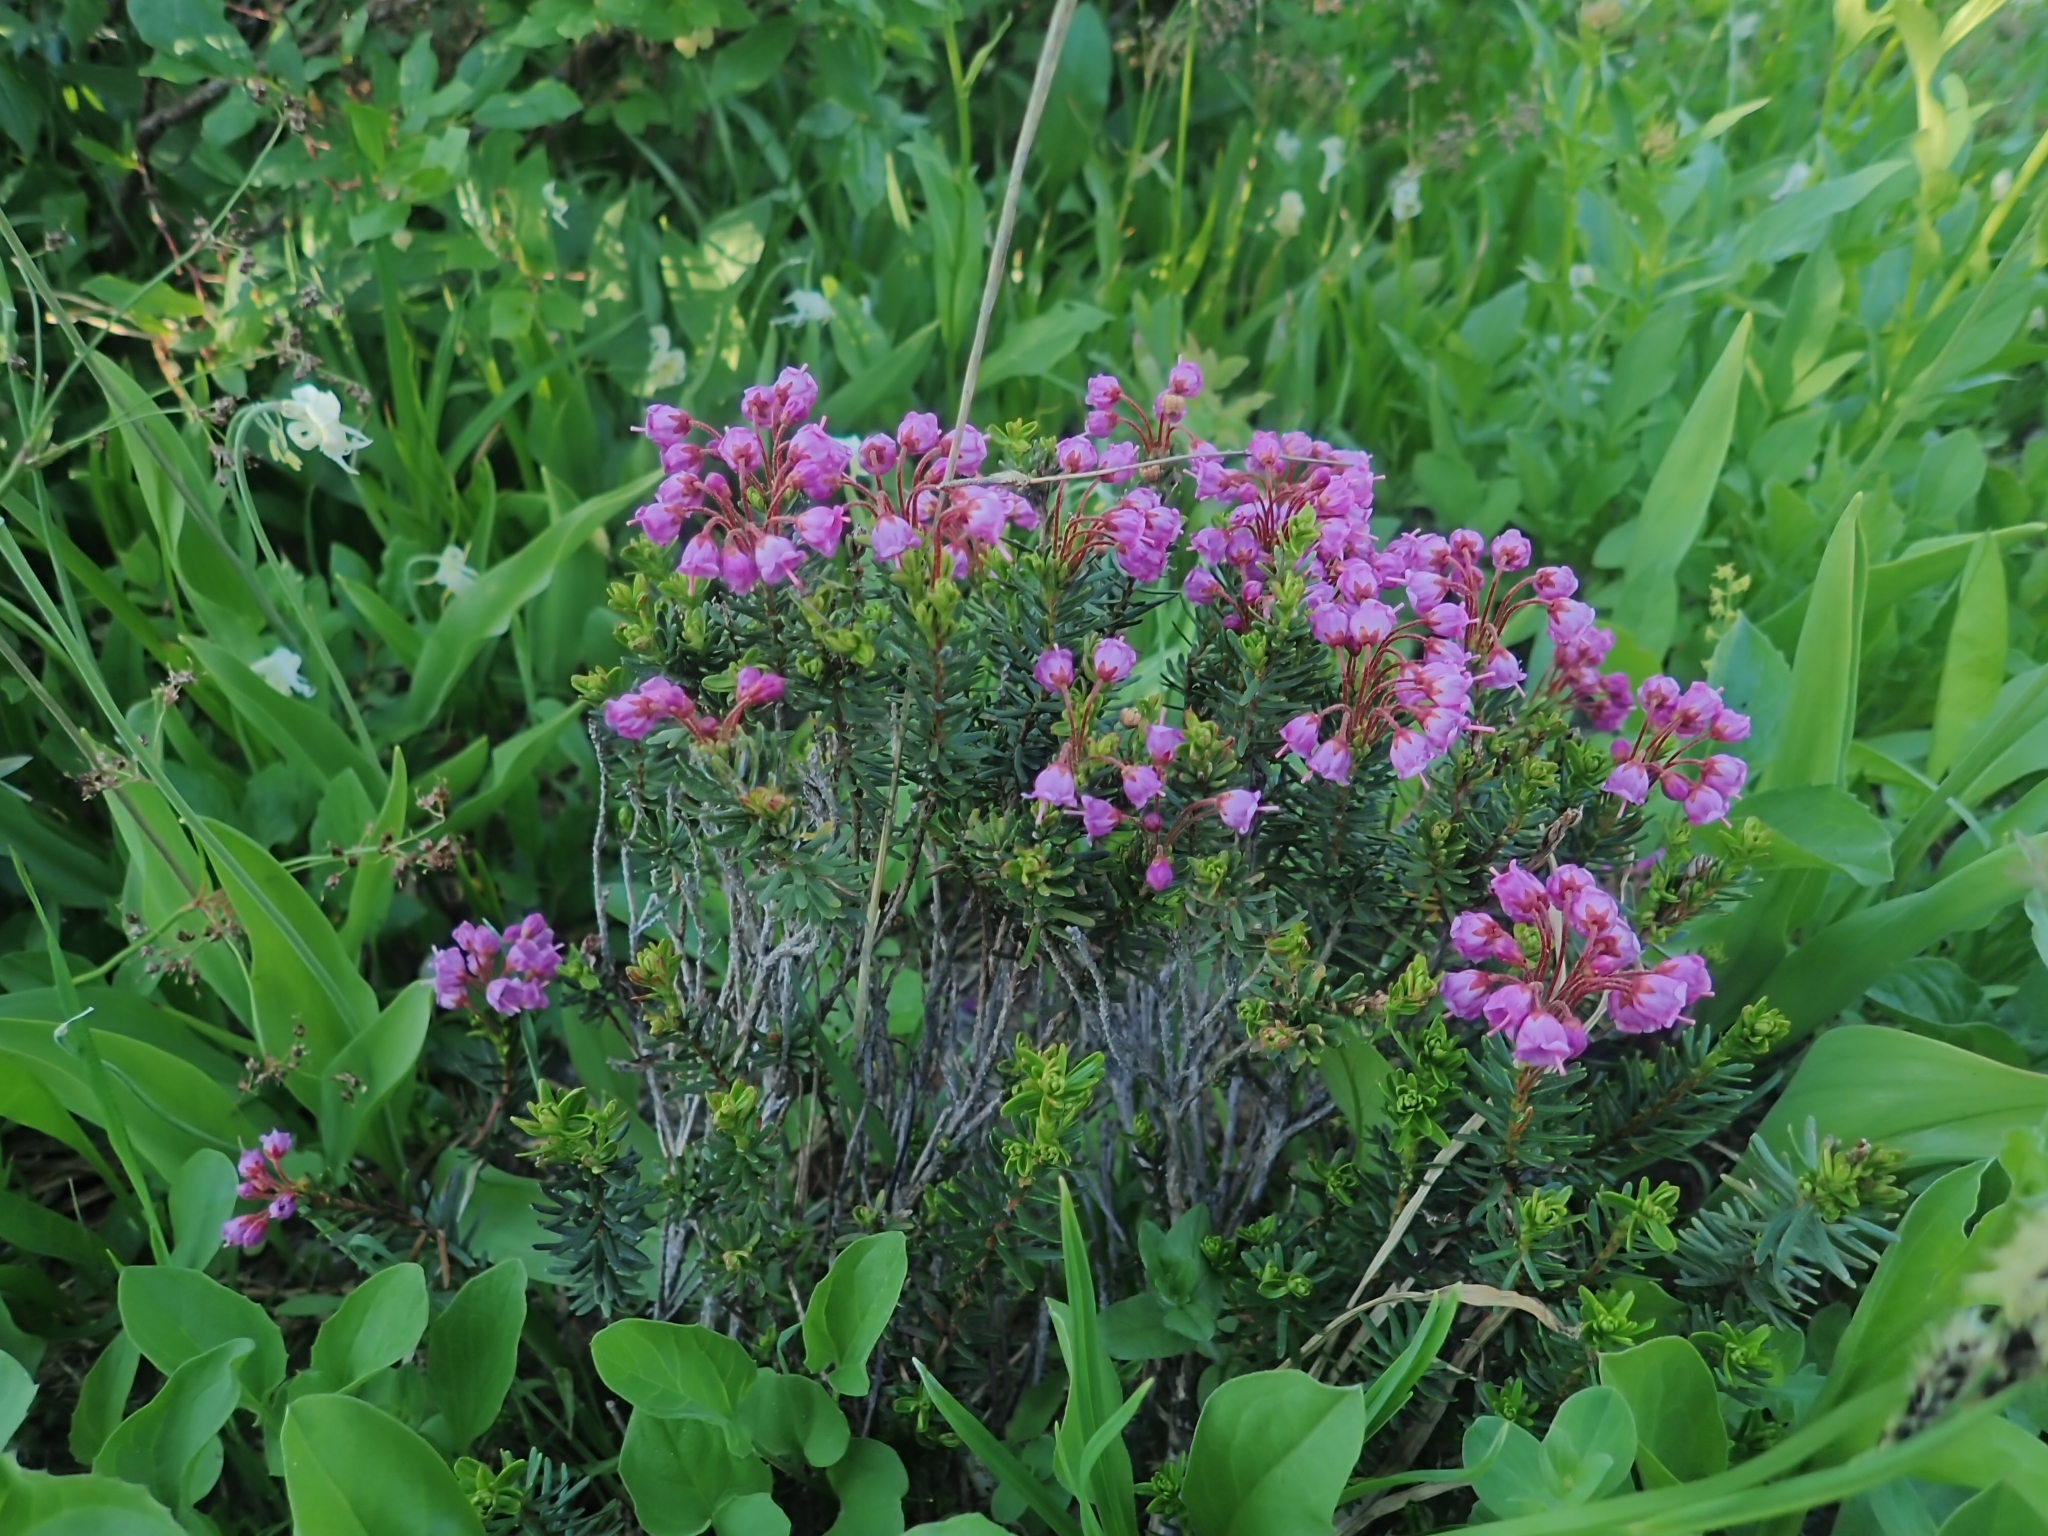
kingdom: Plantae
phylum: Tracheophyta
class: Magnoliopsida
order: Ericales
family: Ericaceae
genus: Phyllodoce
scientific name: Phyllodoce empetriformis
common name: Pink mountain heather
